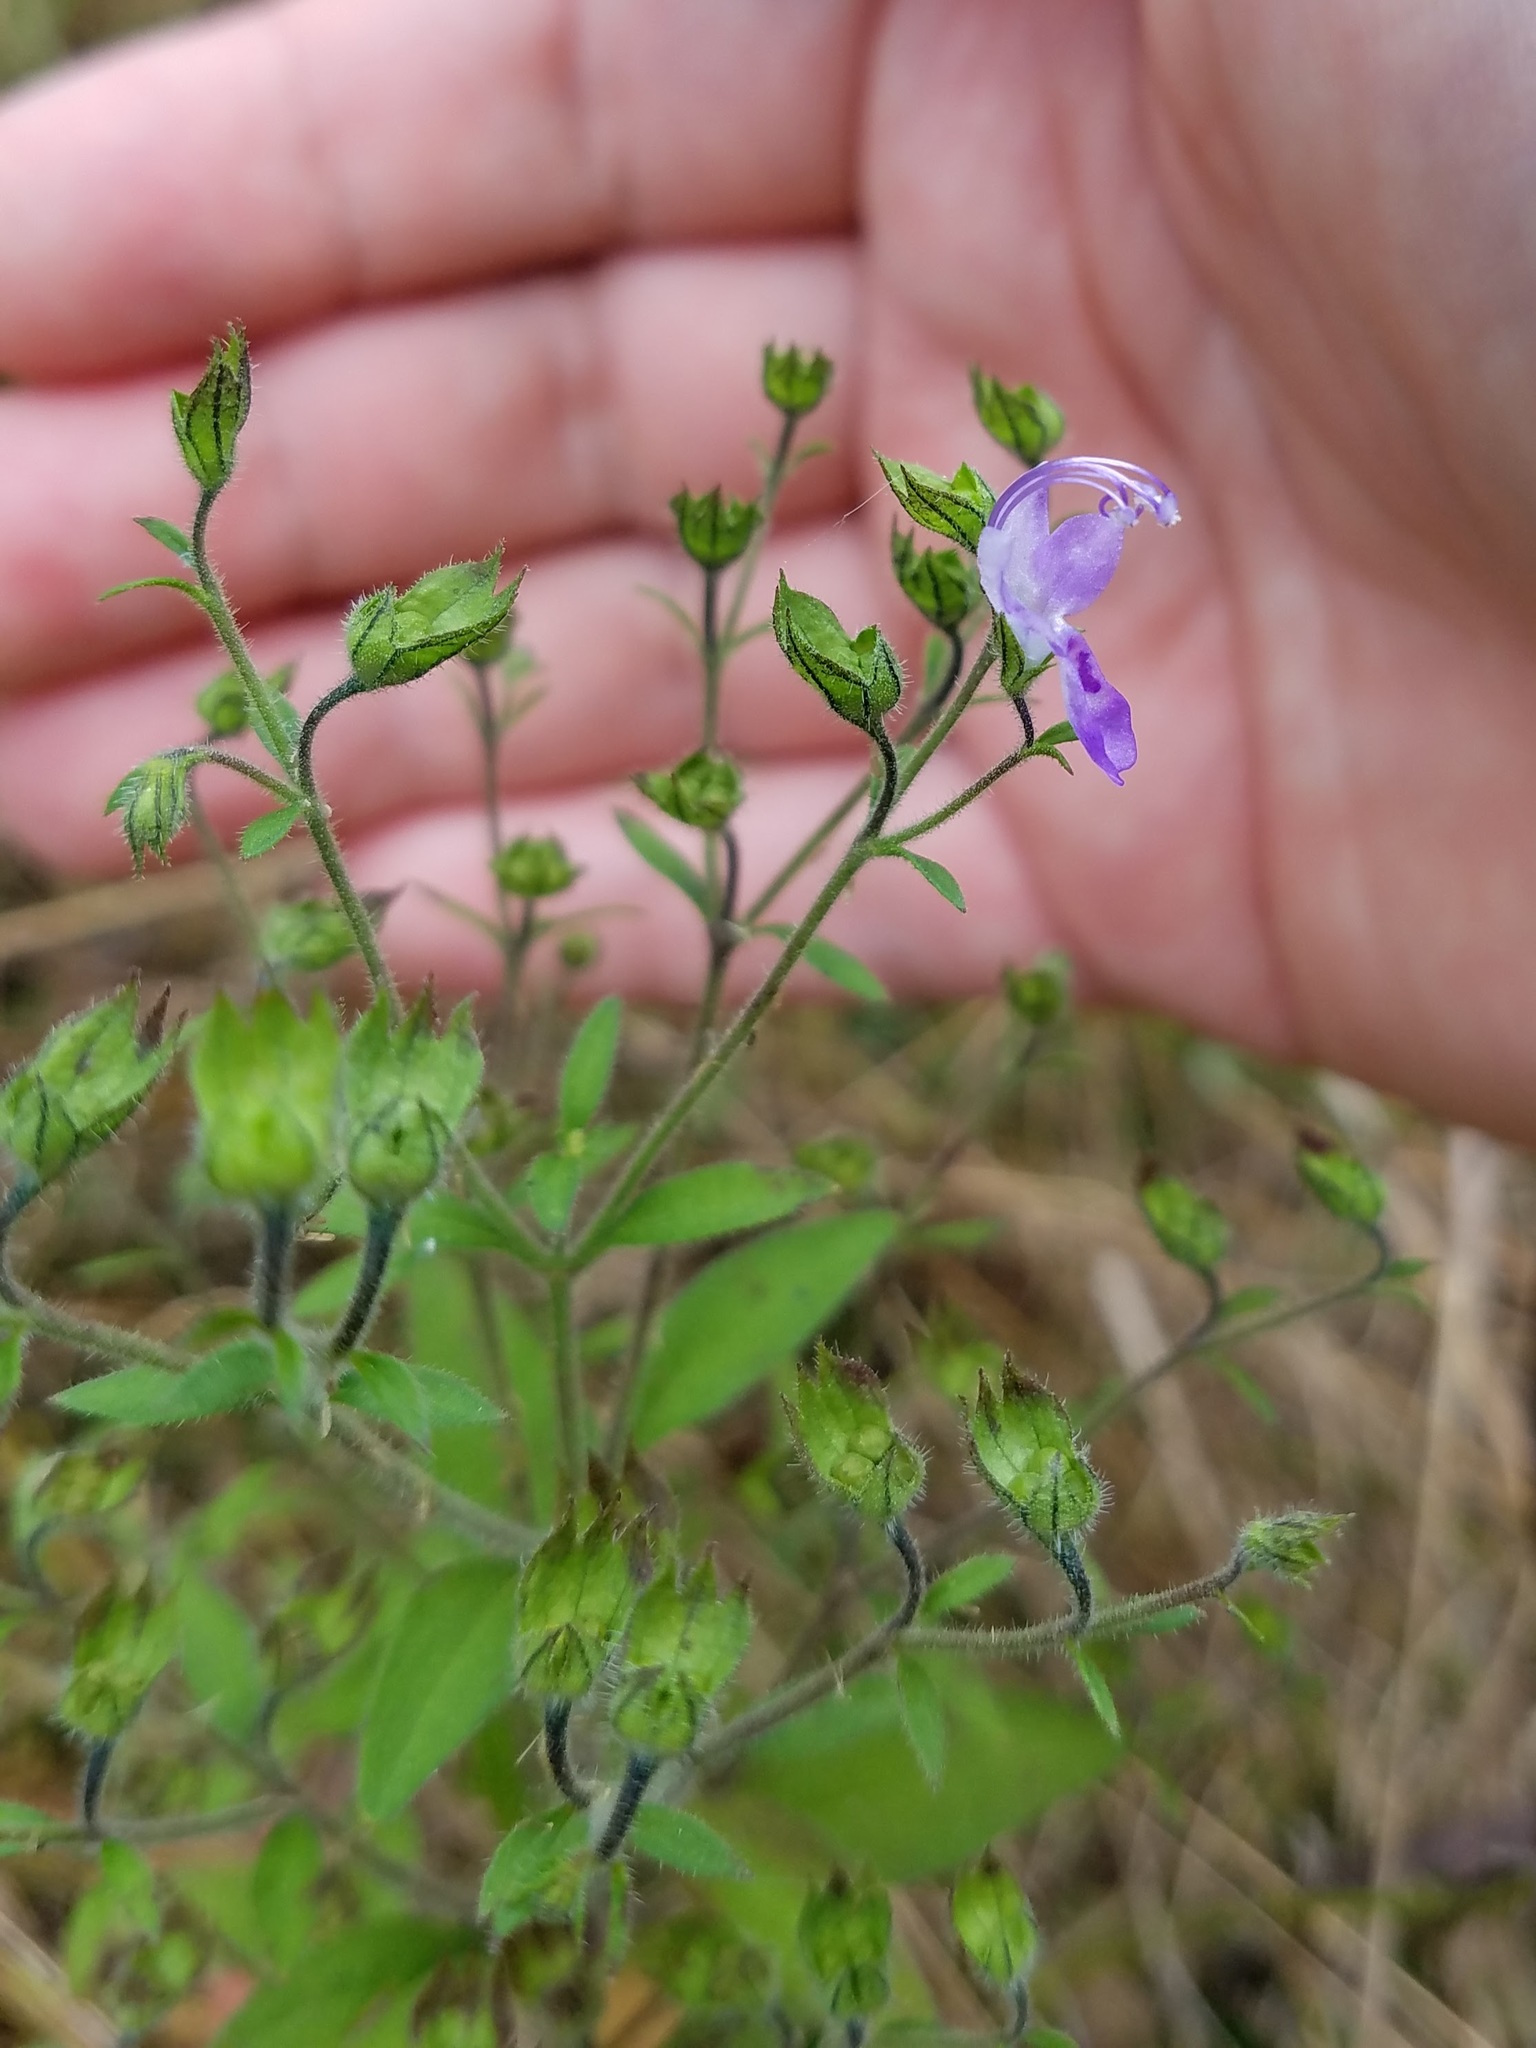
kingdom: Plantae
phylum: Tracheophyta
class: Magnoliopsida
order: Lamiales
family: Lamiaceae
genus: Trichostema
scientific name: Trichostema dichotomum
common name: Bastard pennyroyal
